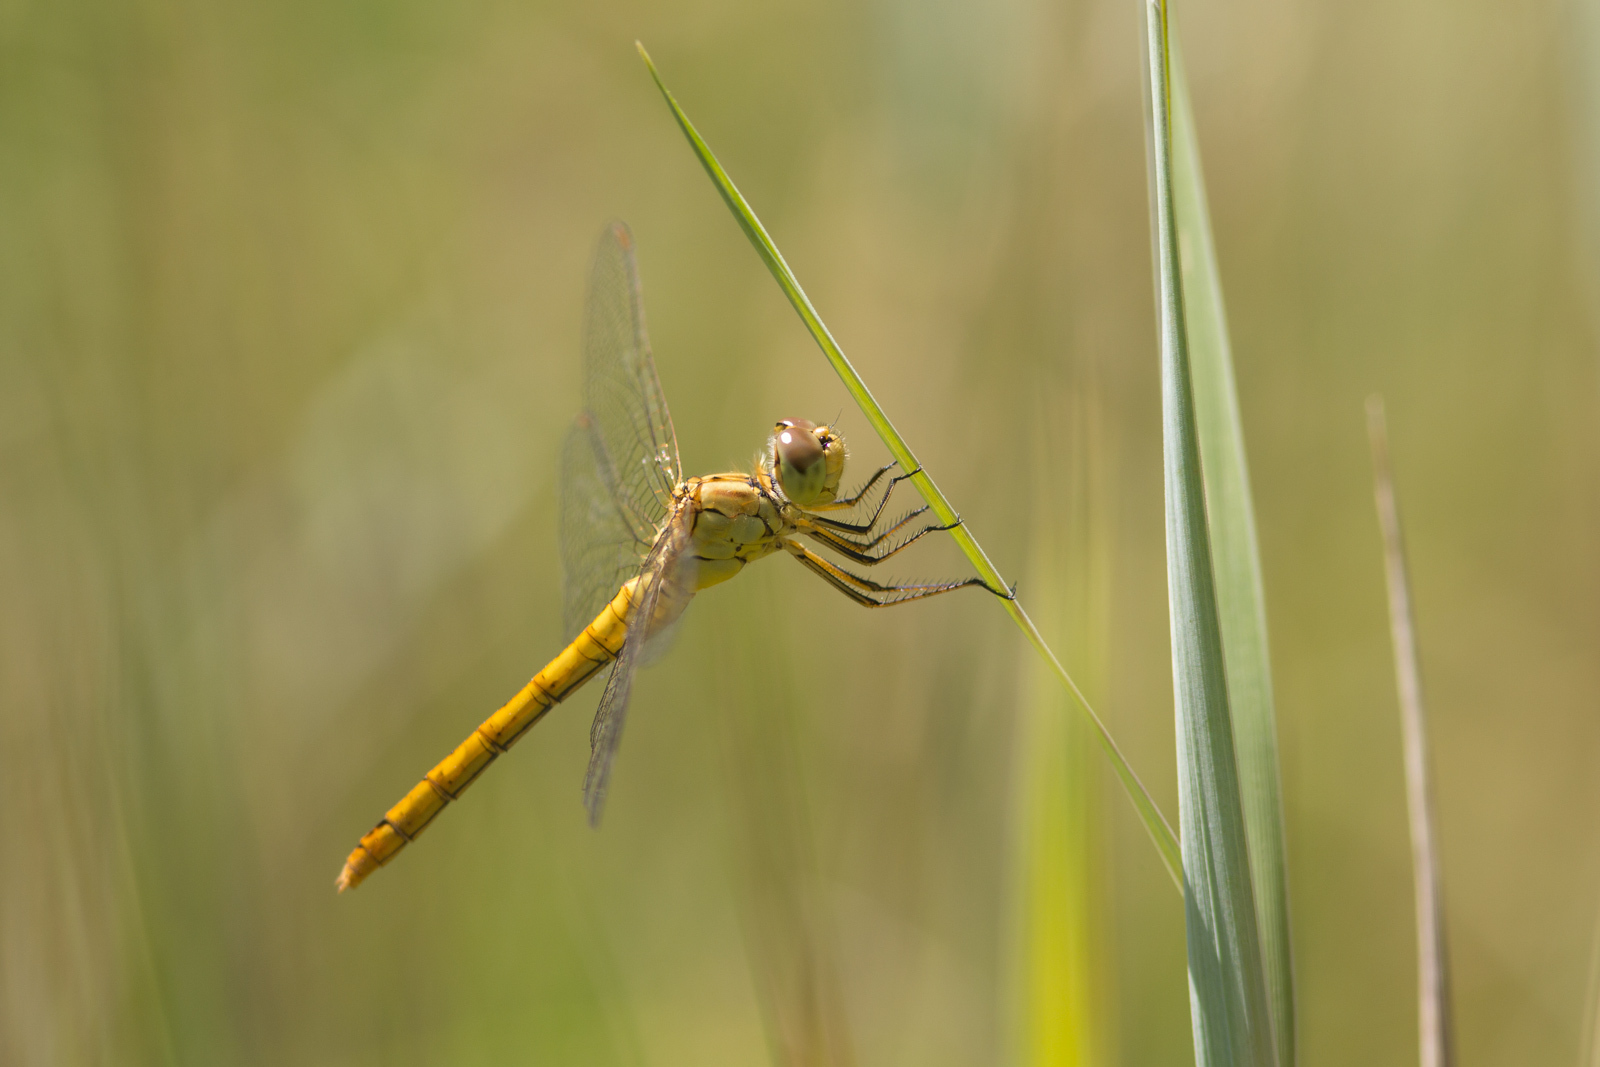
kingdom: Animalia
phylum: Arthropoda
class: Insecta
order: Odonata
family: Libellulidae
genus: Sympetrum
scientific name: Sympetrum meridionale
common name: Southern darter
